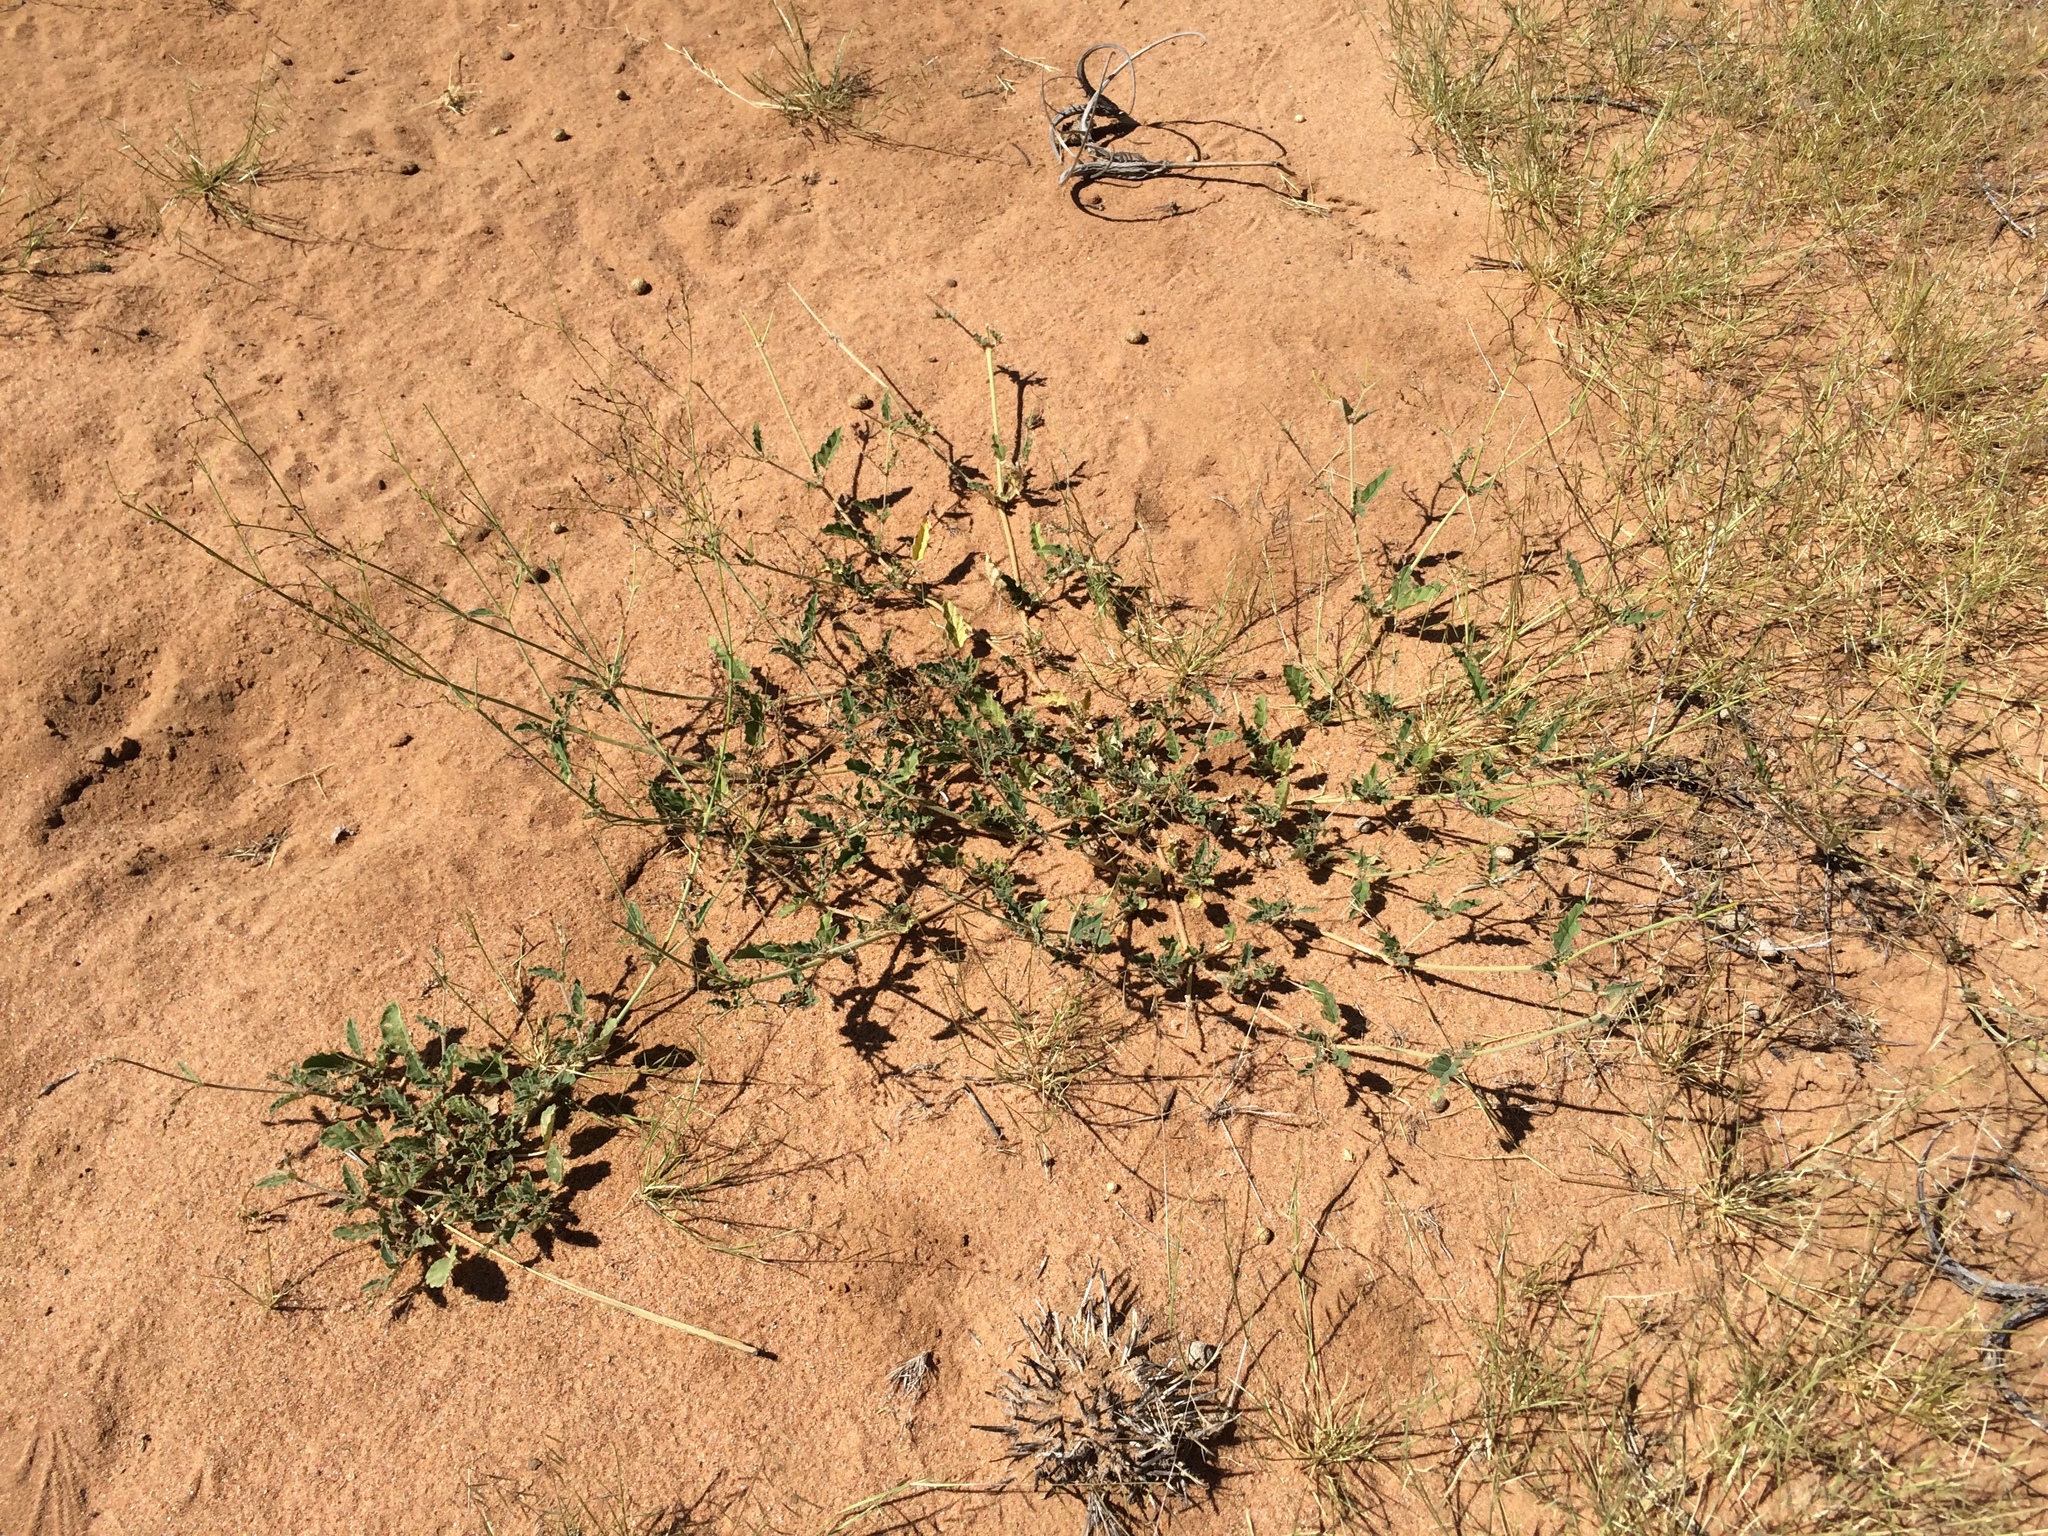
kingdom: Plantae
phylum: Tracheophyta
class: Magnoliopsida
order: Caryophyllales
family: Nyctaginaceae
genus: Boerhavia
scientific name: Boerhavia torreyana
